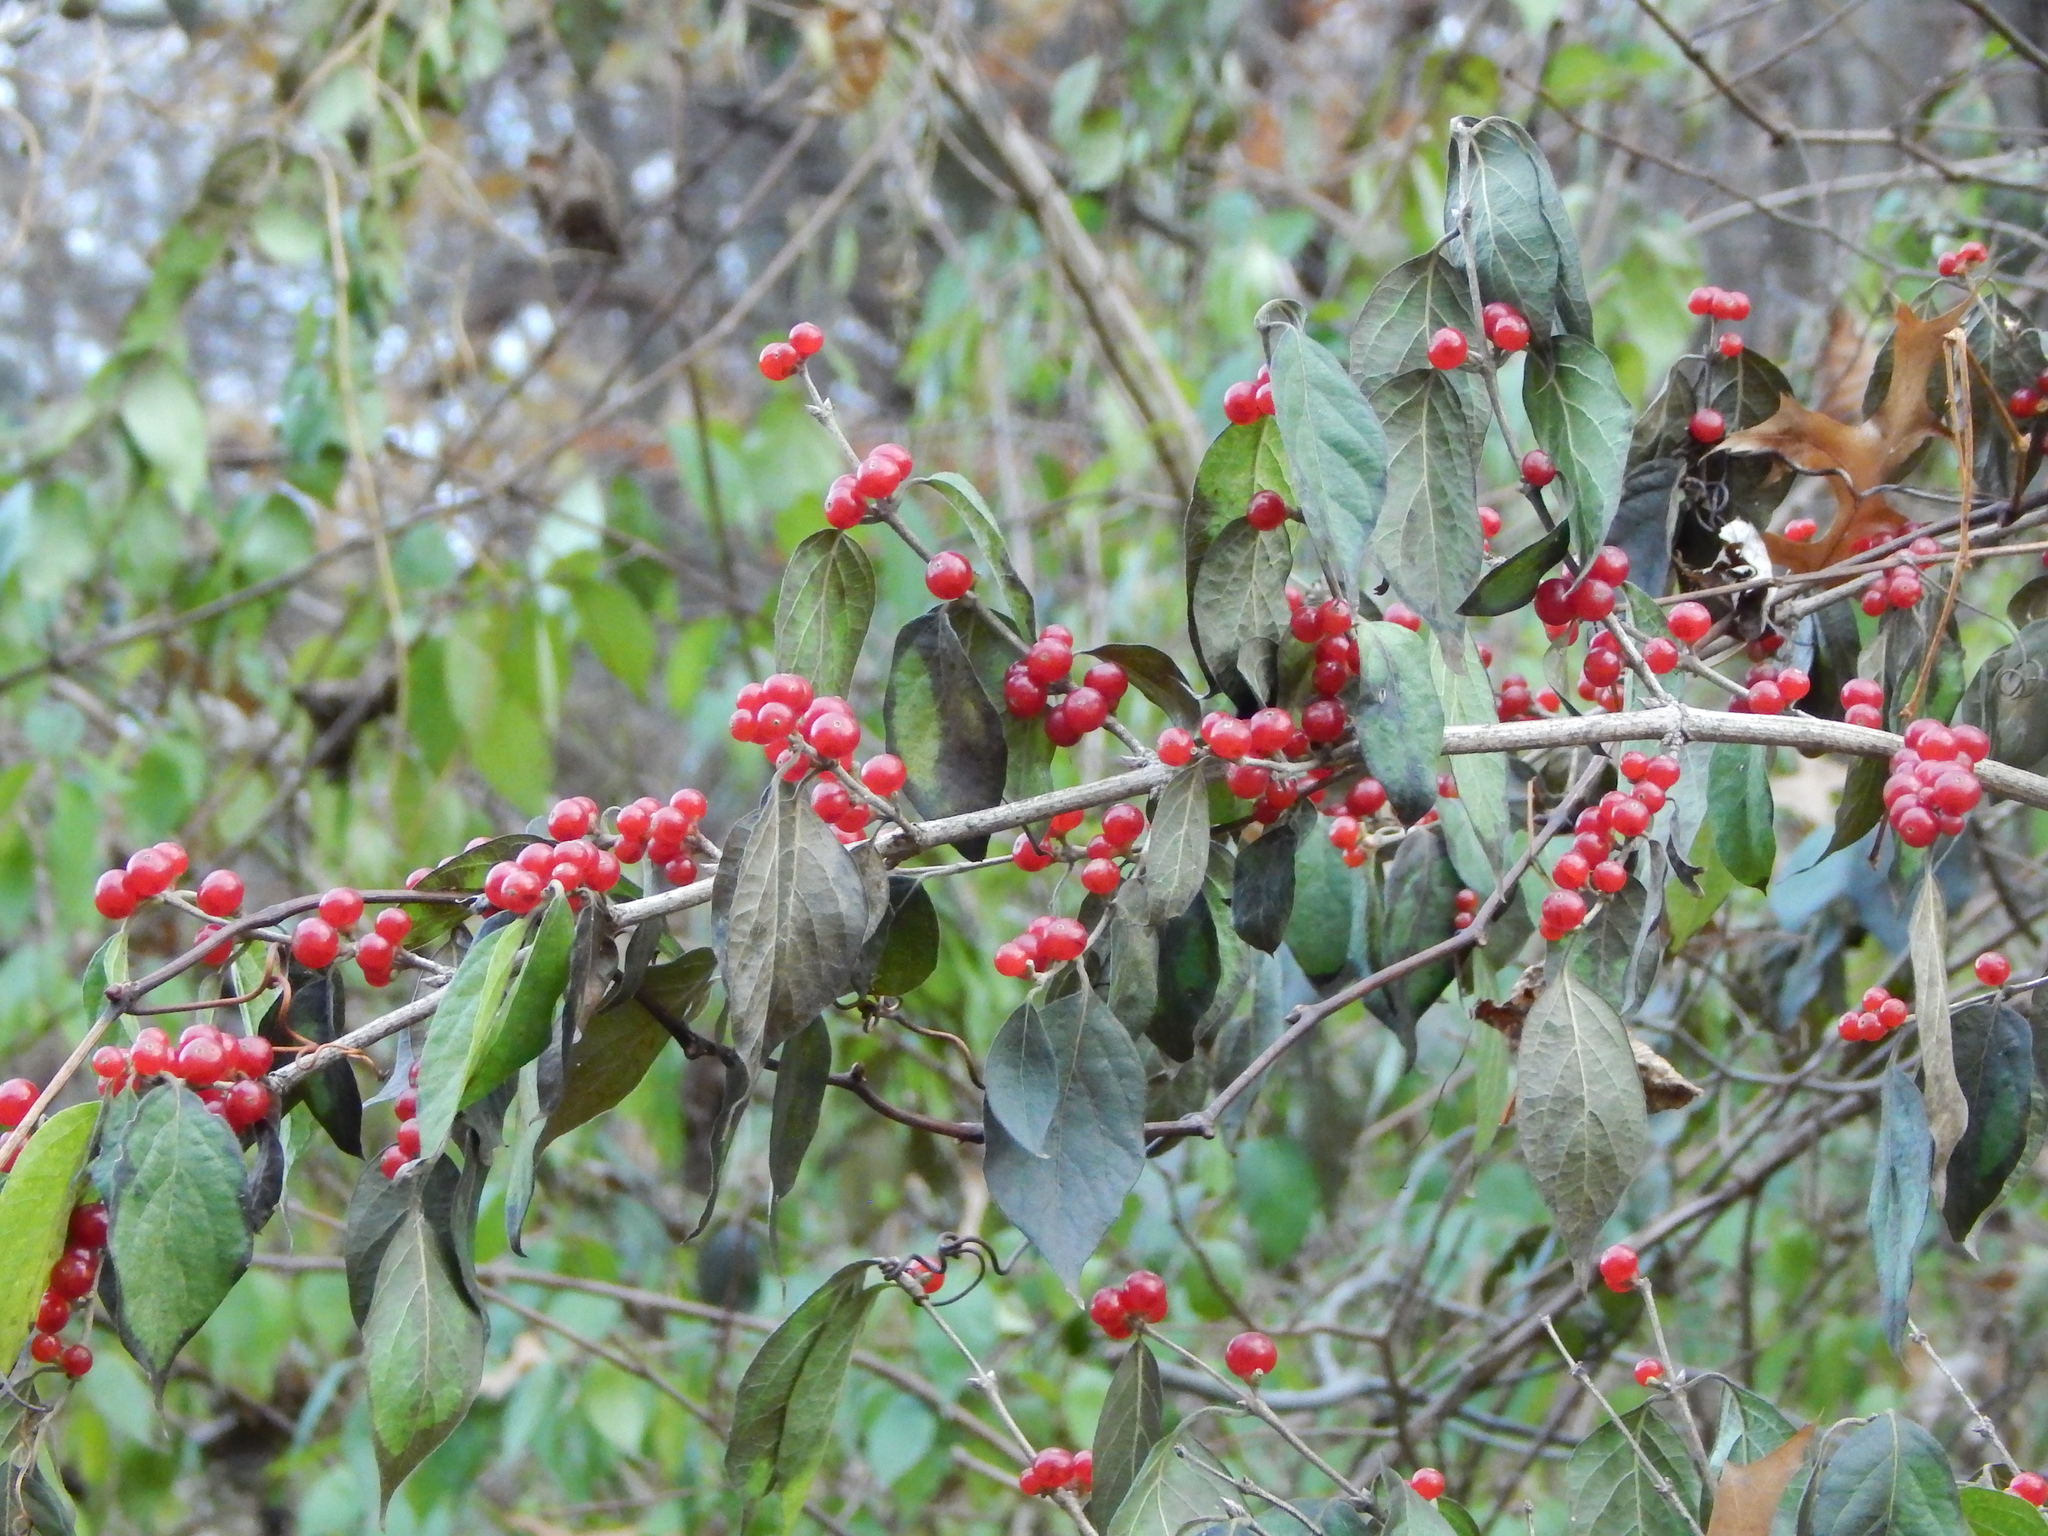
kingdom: Plantae
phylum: Tracheophyta
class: Magnoliopsida
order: Dipsacales
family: Caprifoliaceae
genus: Lonicera
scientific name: Lonicera maackii
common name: Amur honeysuckle
